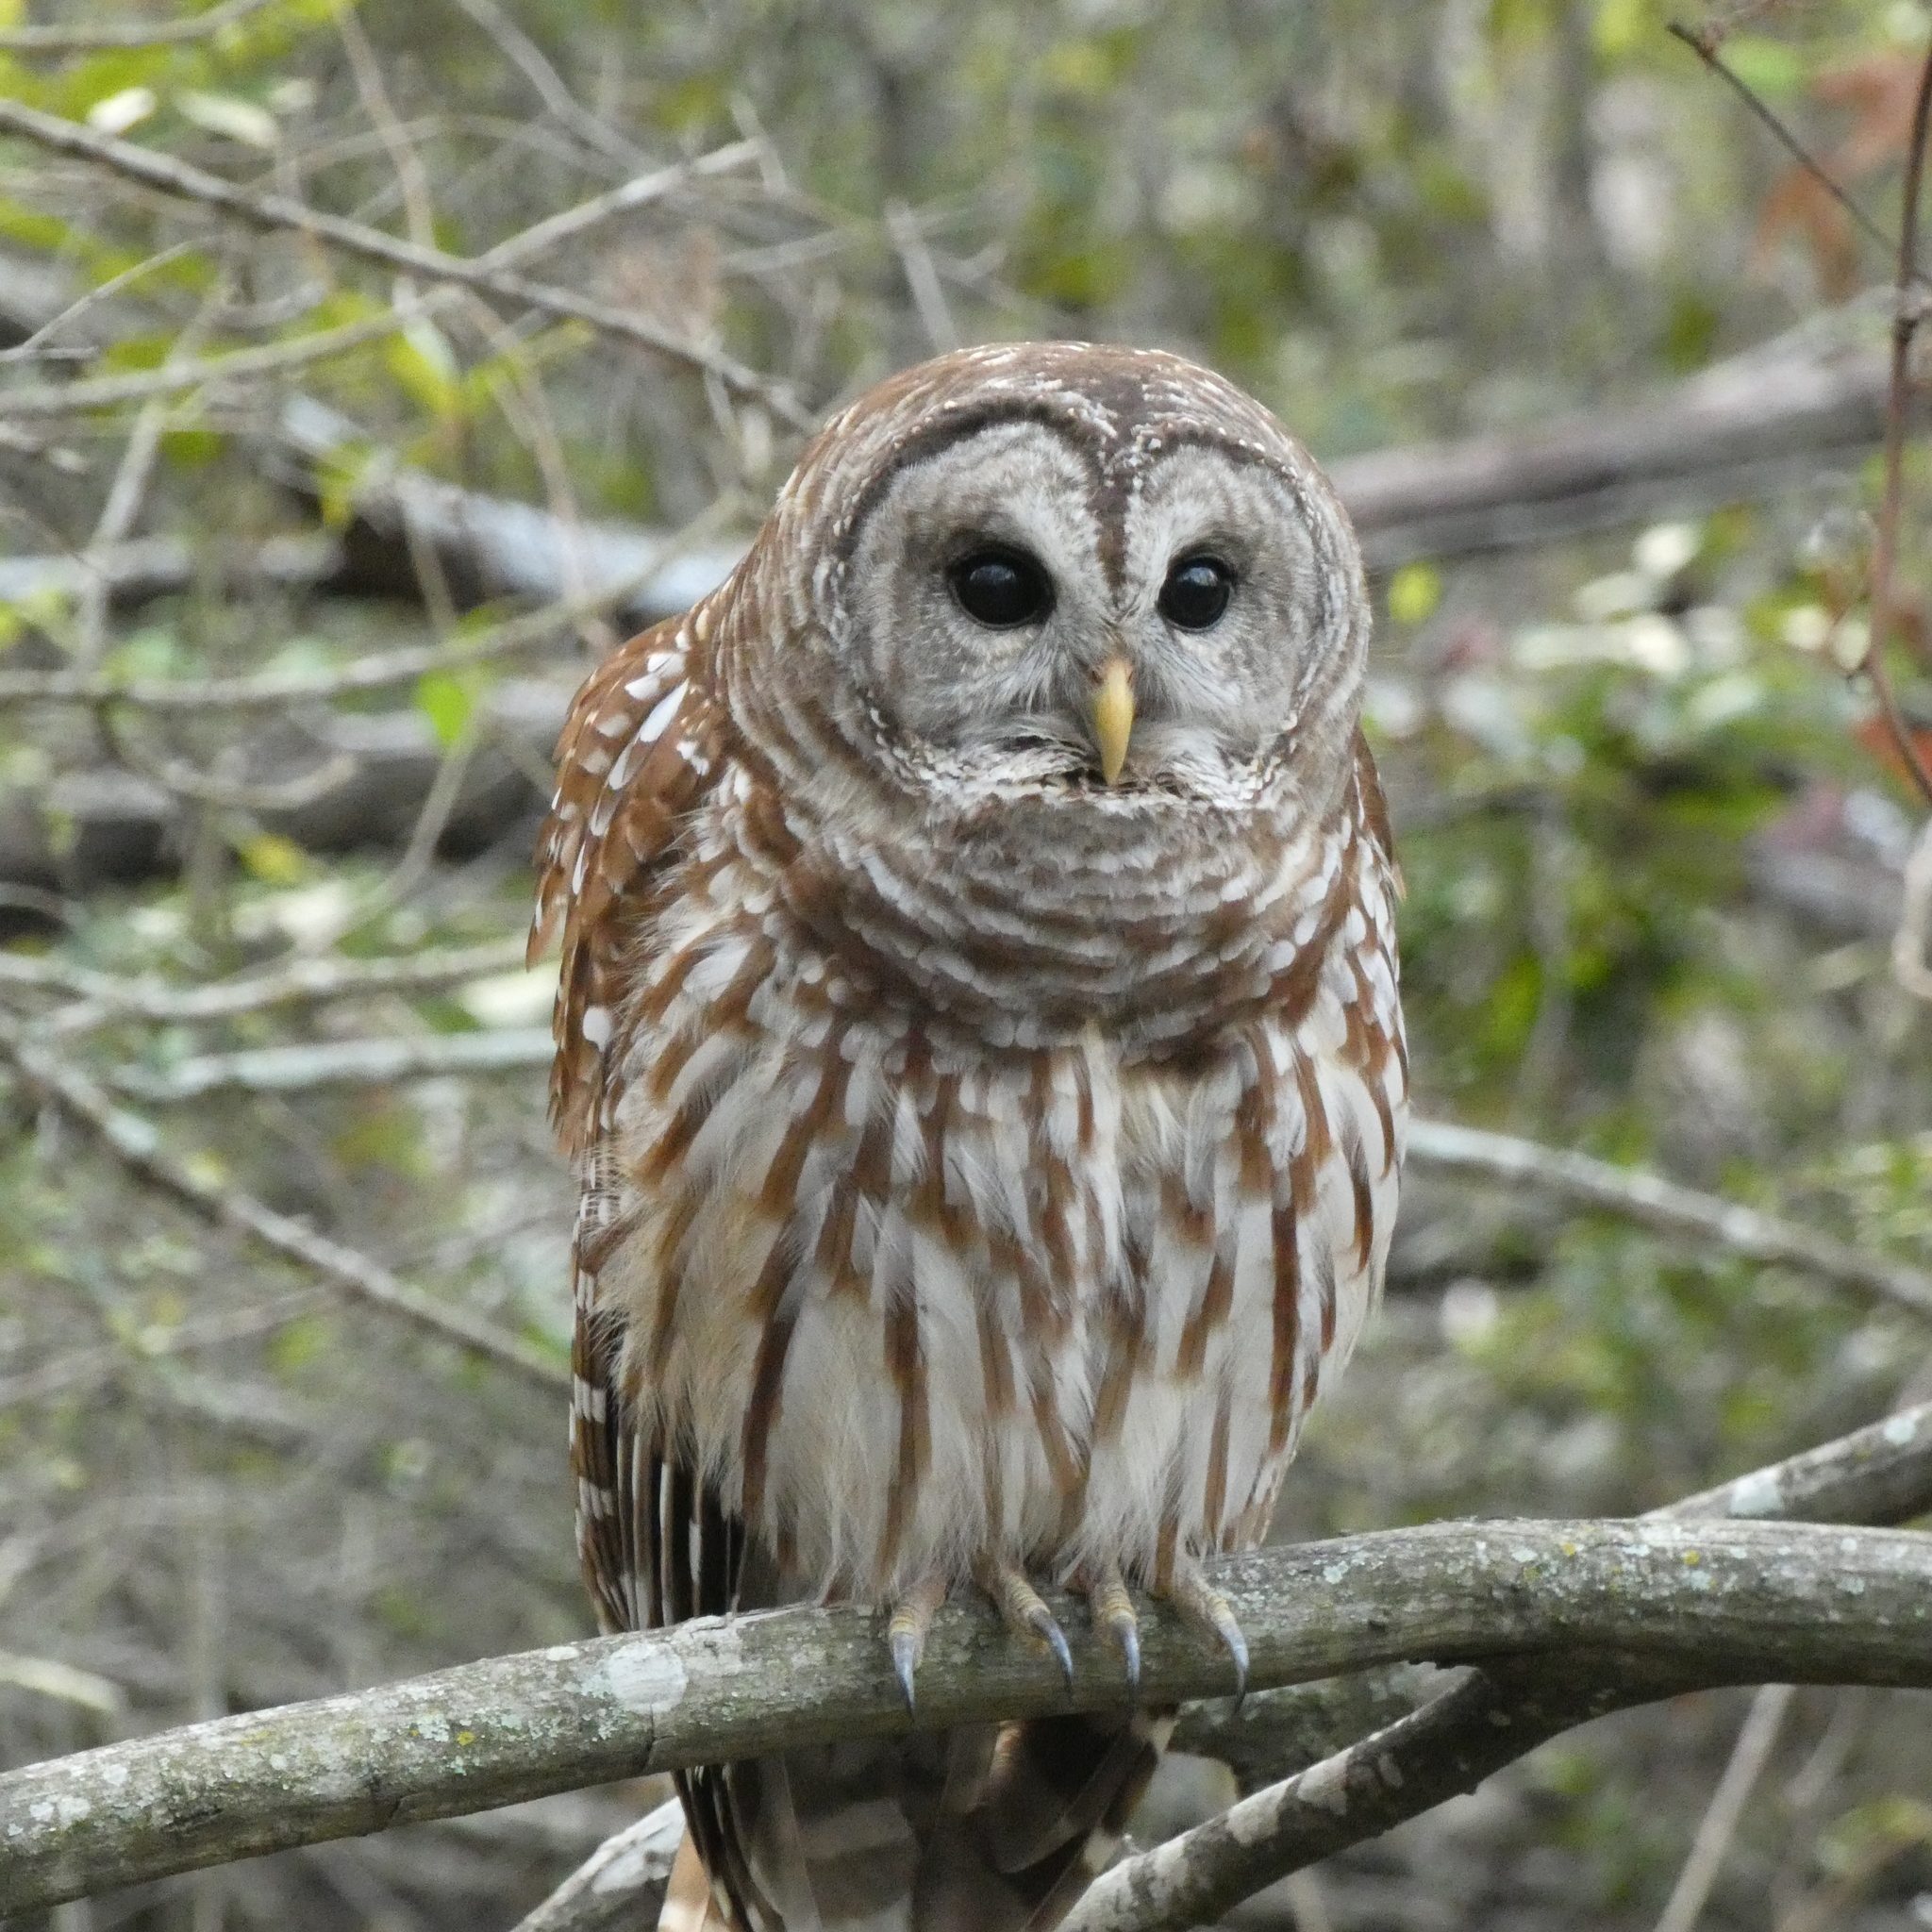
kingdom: Animalia
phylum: Chordata
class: Aves
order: Strigiformes
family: Strigidae
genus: Strix
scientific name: Strix varia
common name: Barred owl
